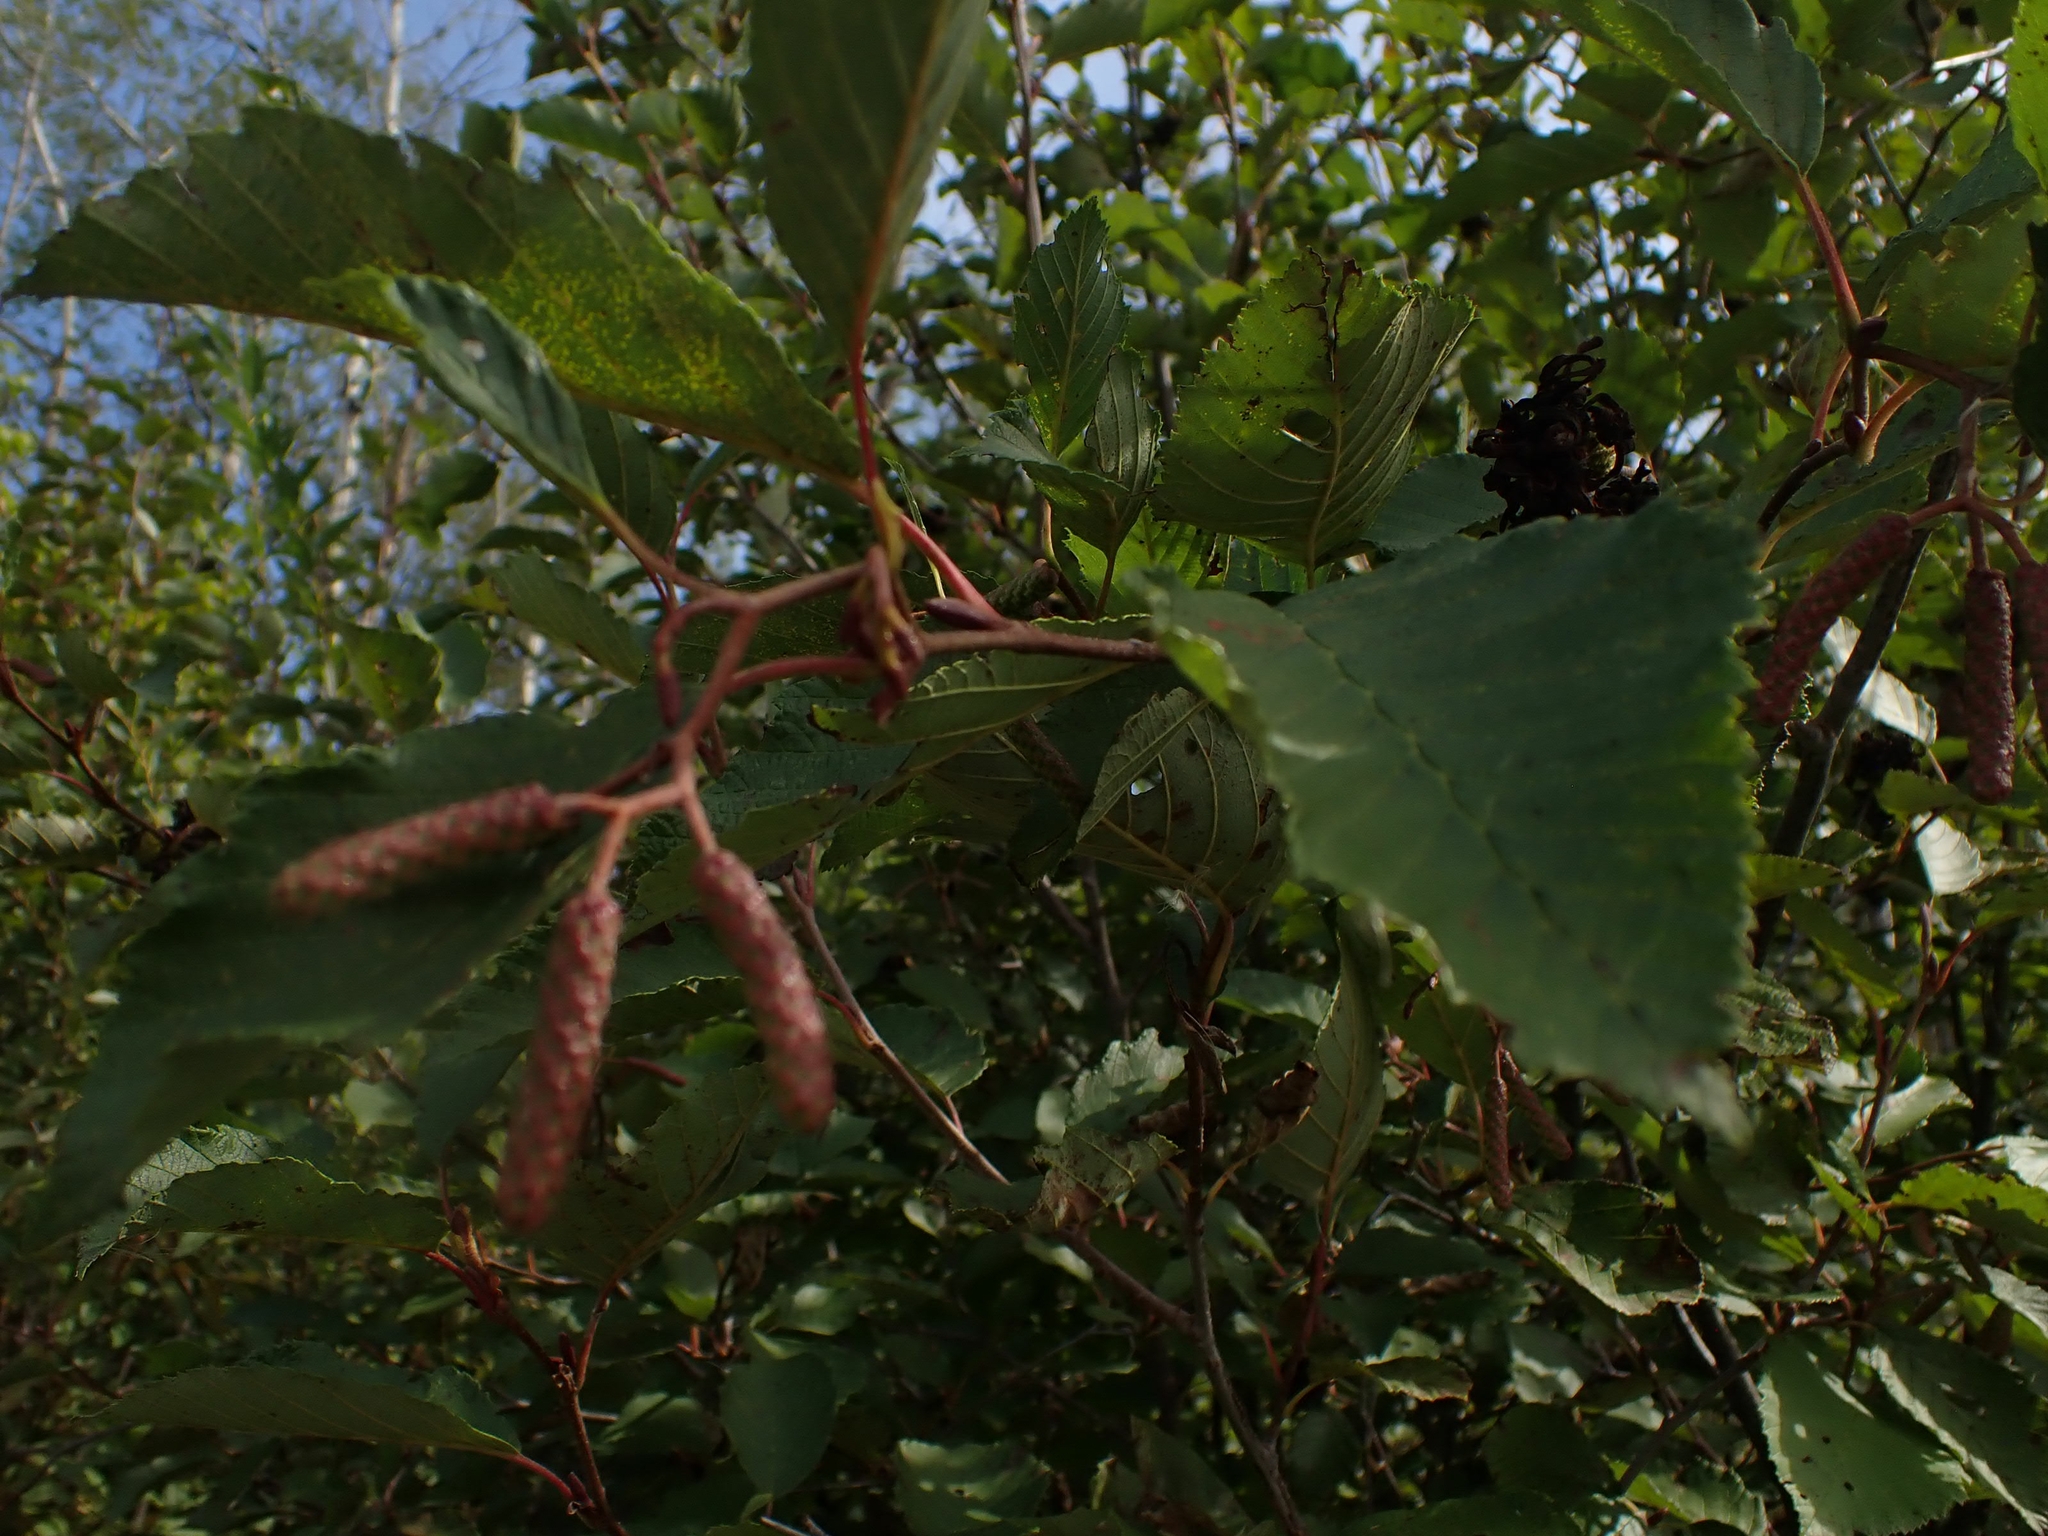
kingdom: Plantae
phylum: Tracheophyta
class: Magnoliopsida
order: Fagales
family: Betulaceae
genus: Alnus
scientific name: Alnus incana
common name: Grey alder
